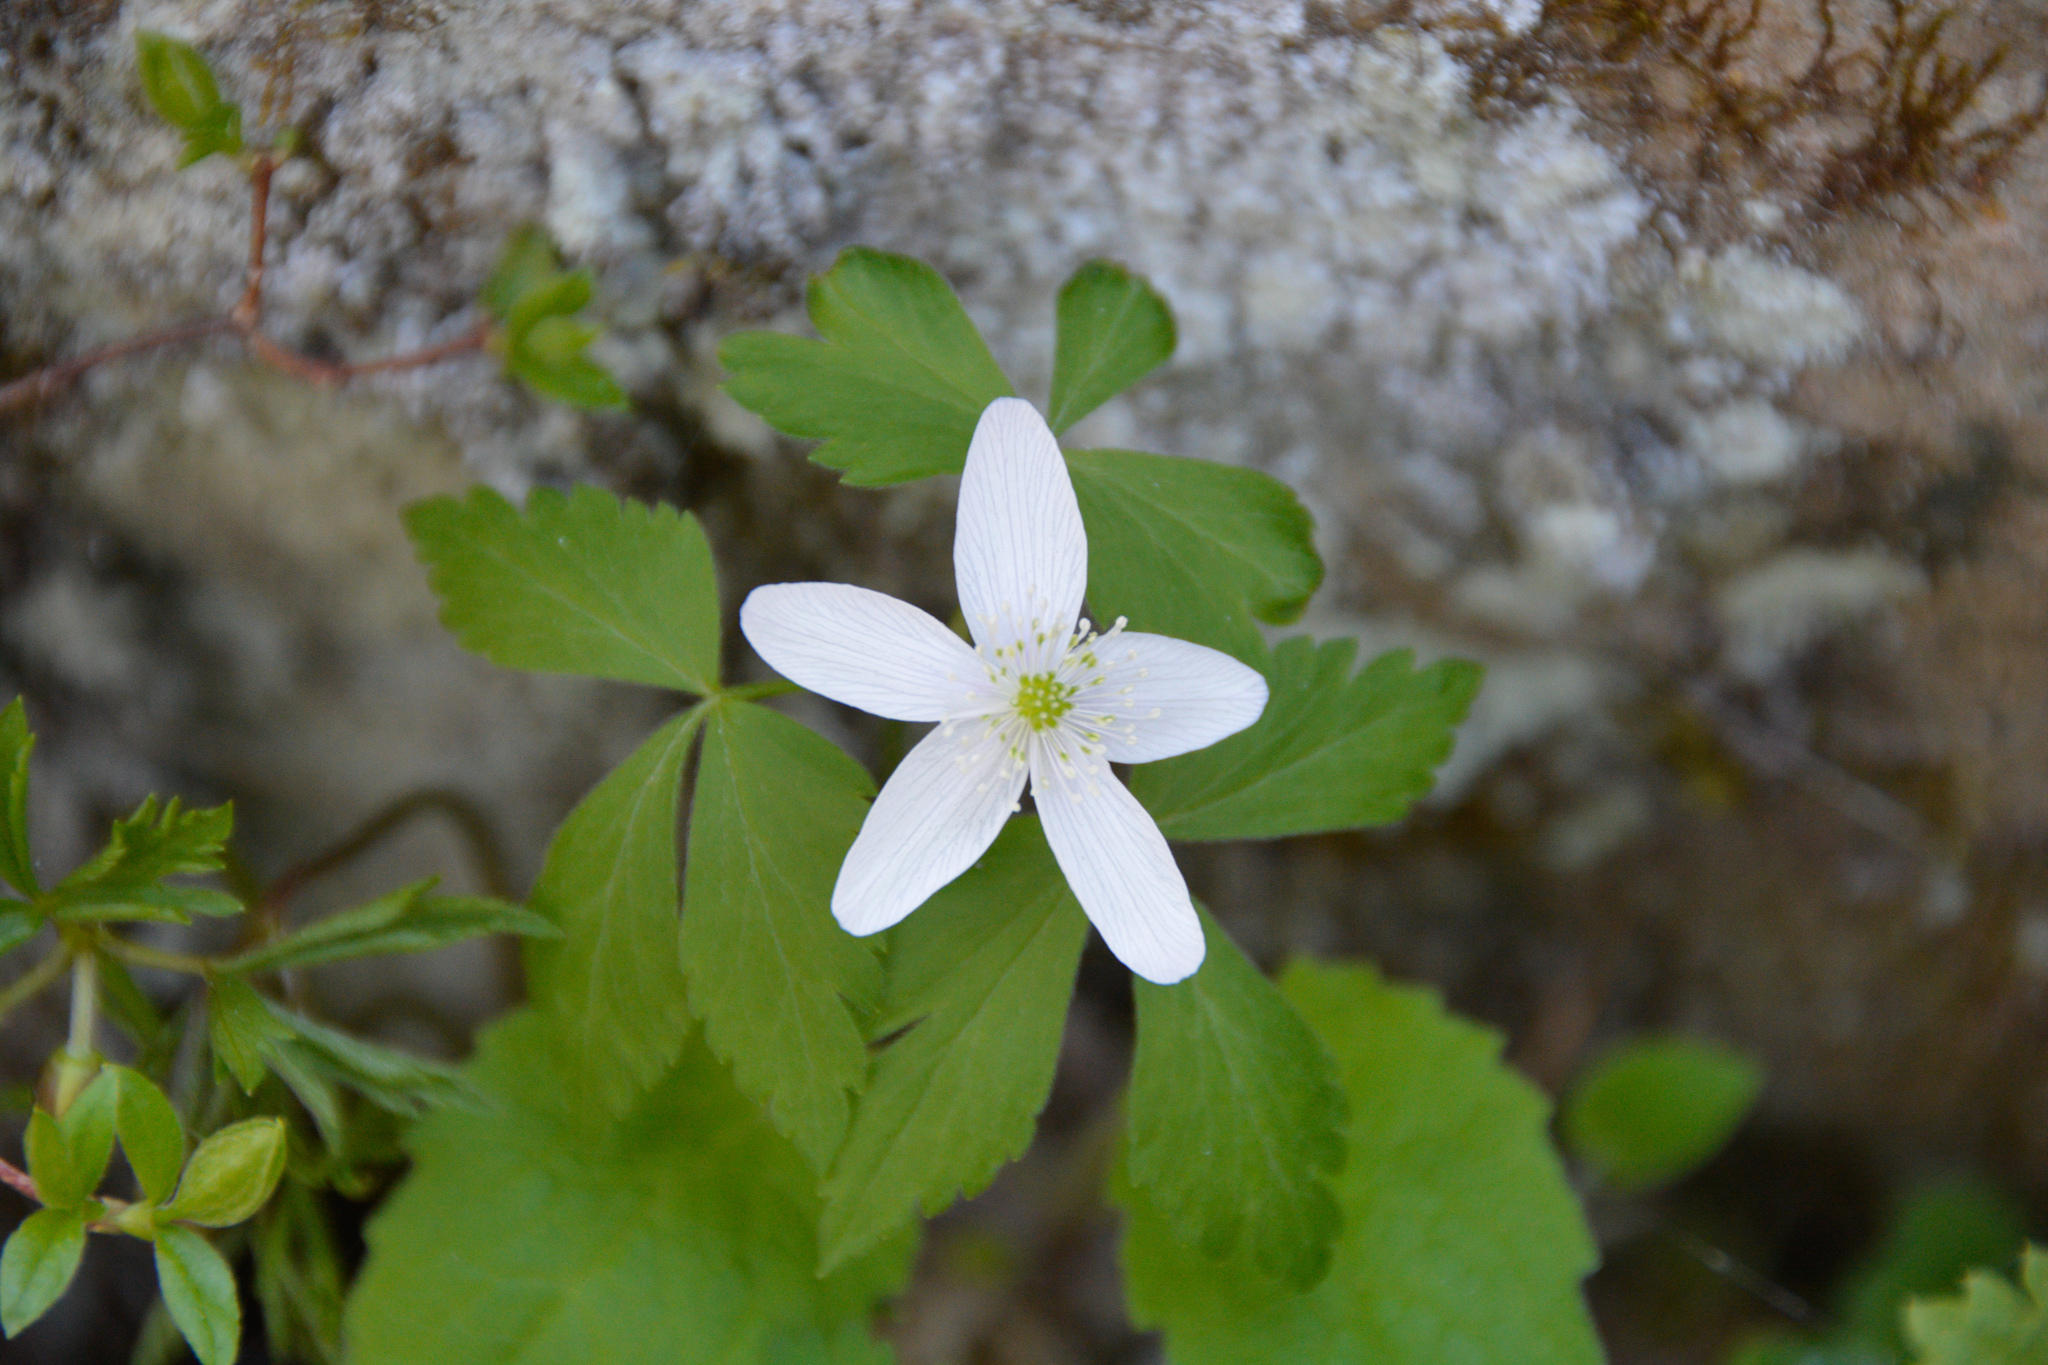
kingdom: Plantae
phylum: Tracheophyta
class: Magnoliopsida
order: Ranunculales
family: Ranunculaceae
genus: Anemone
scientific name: Anemone piperi
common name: Piper's anemone
